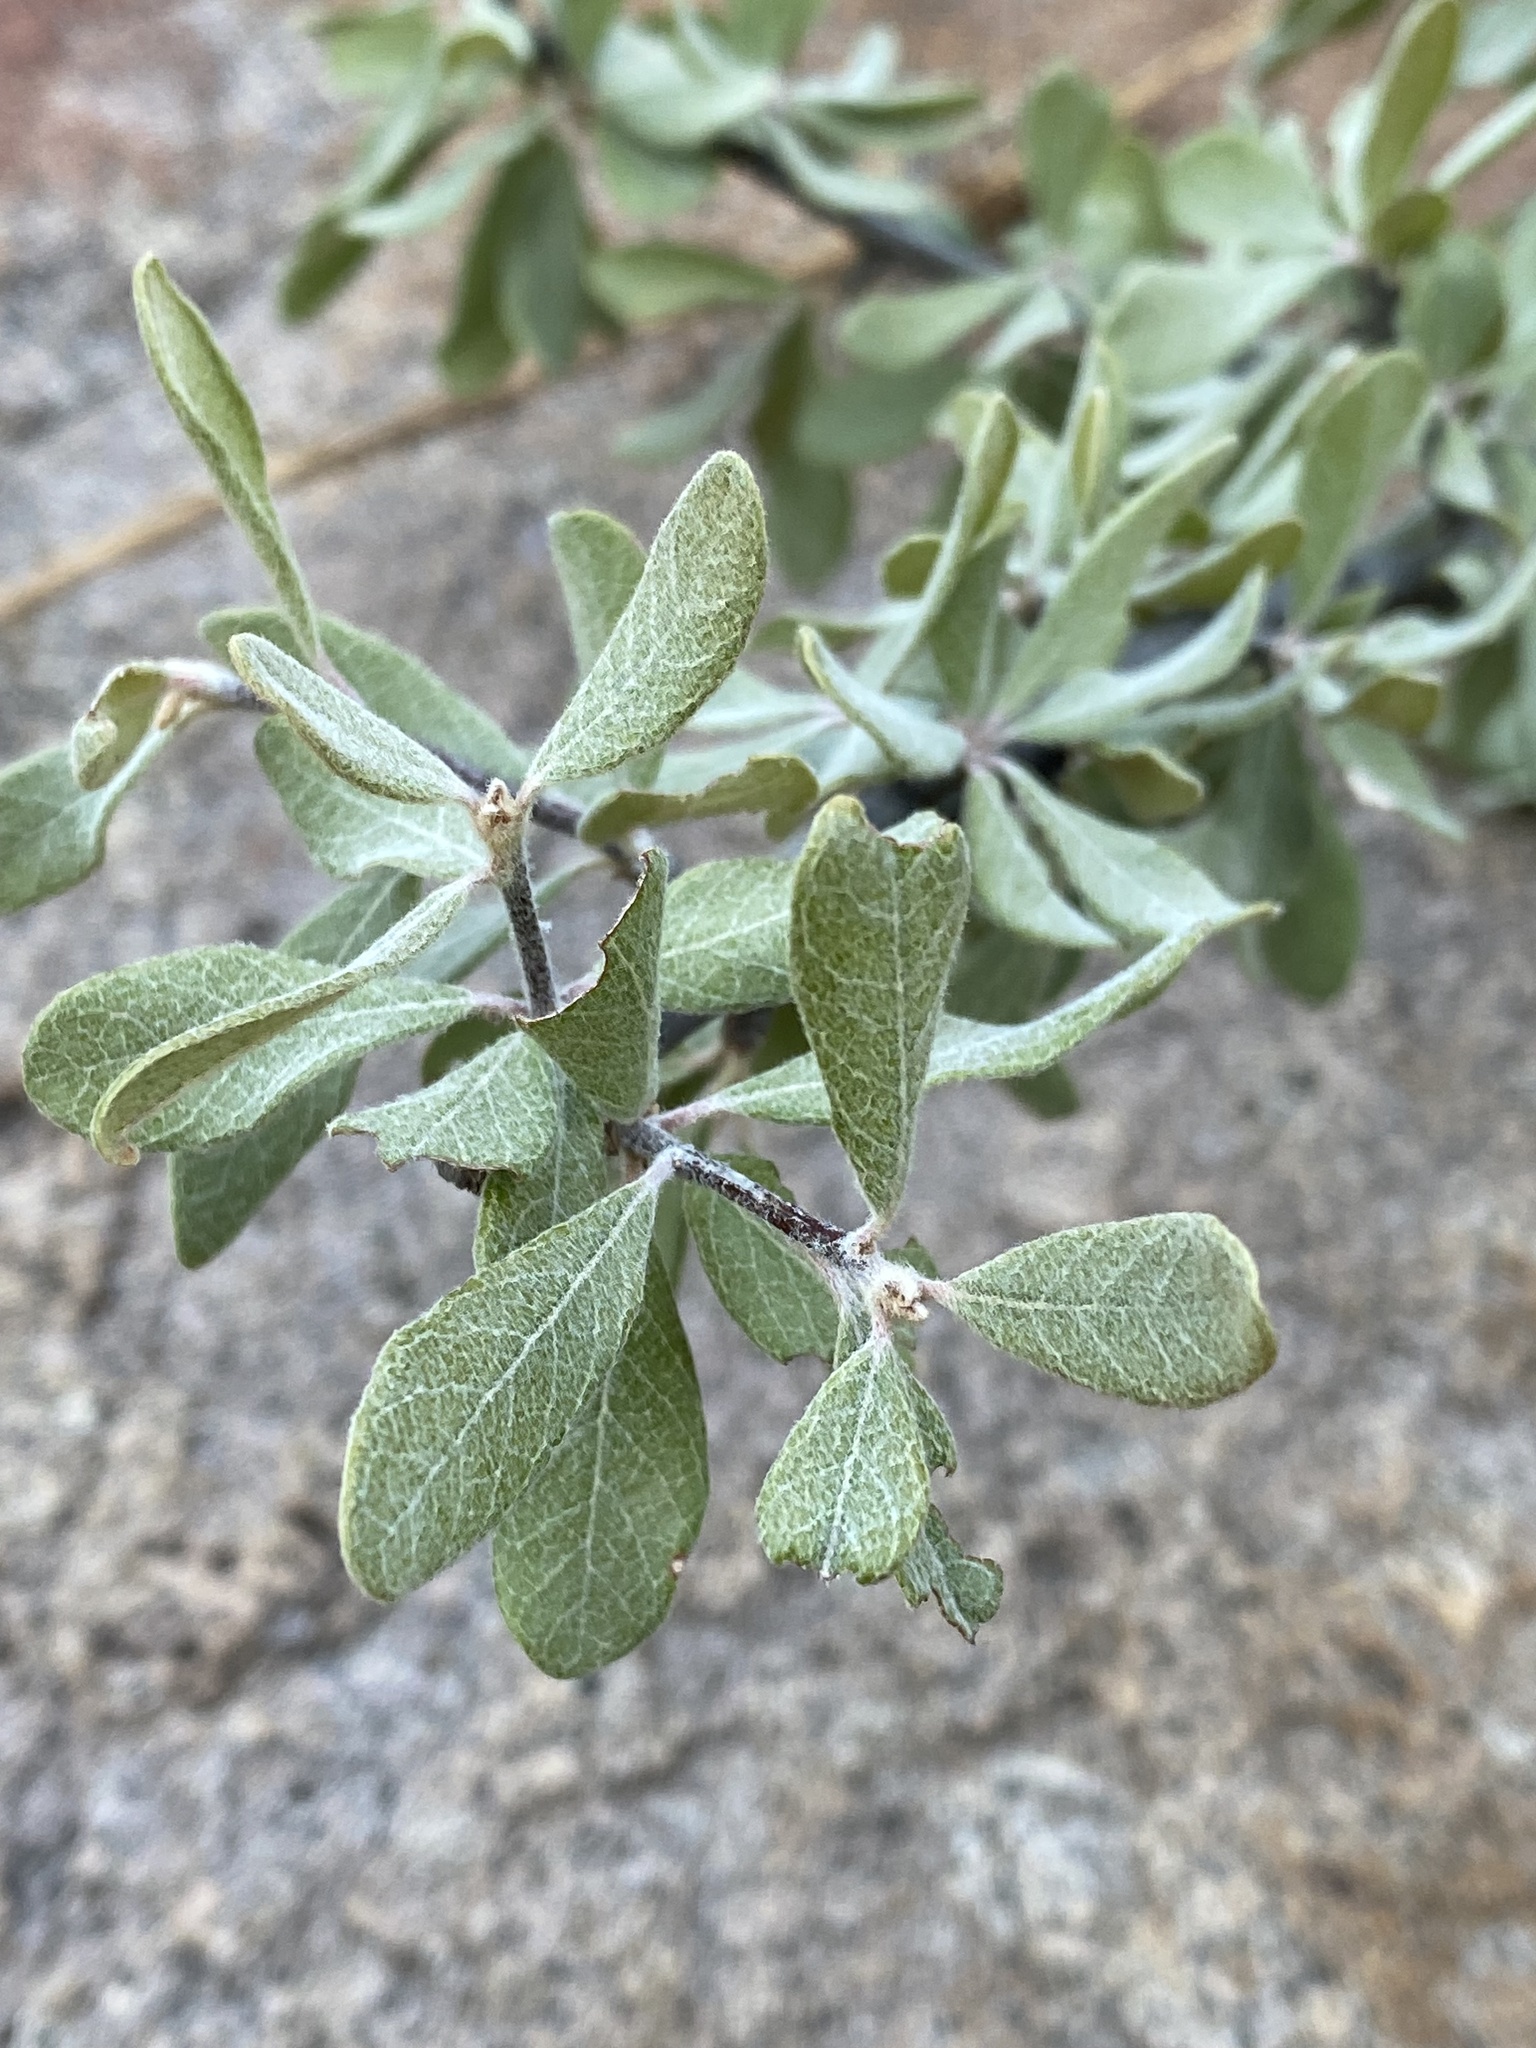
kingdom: Plantae
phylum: Tracheophyta
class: Magnoliopsida
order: Ericales
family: Sapotaceae
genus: Sideroxylon
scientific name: Sideroxylon lanuginosum
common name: Chittamwood
